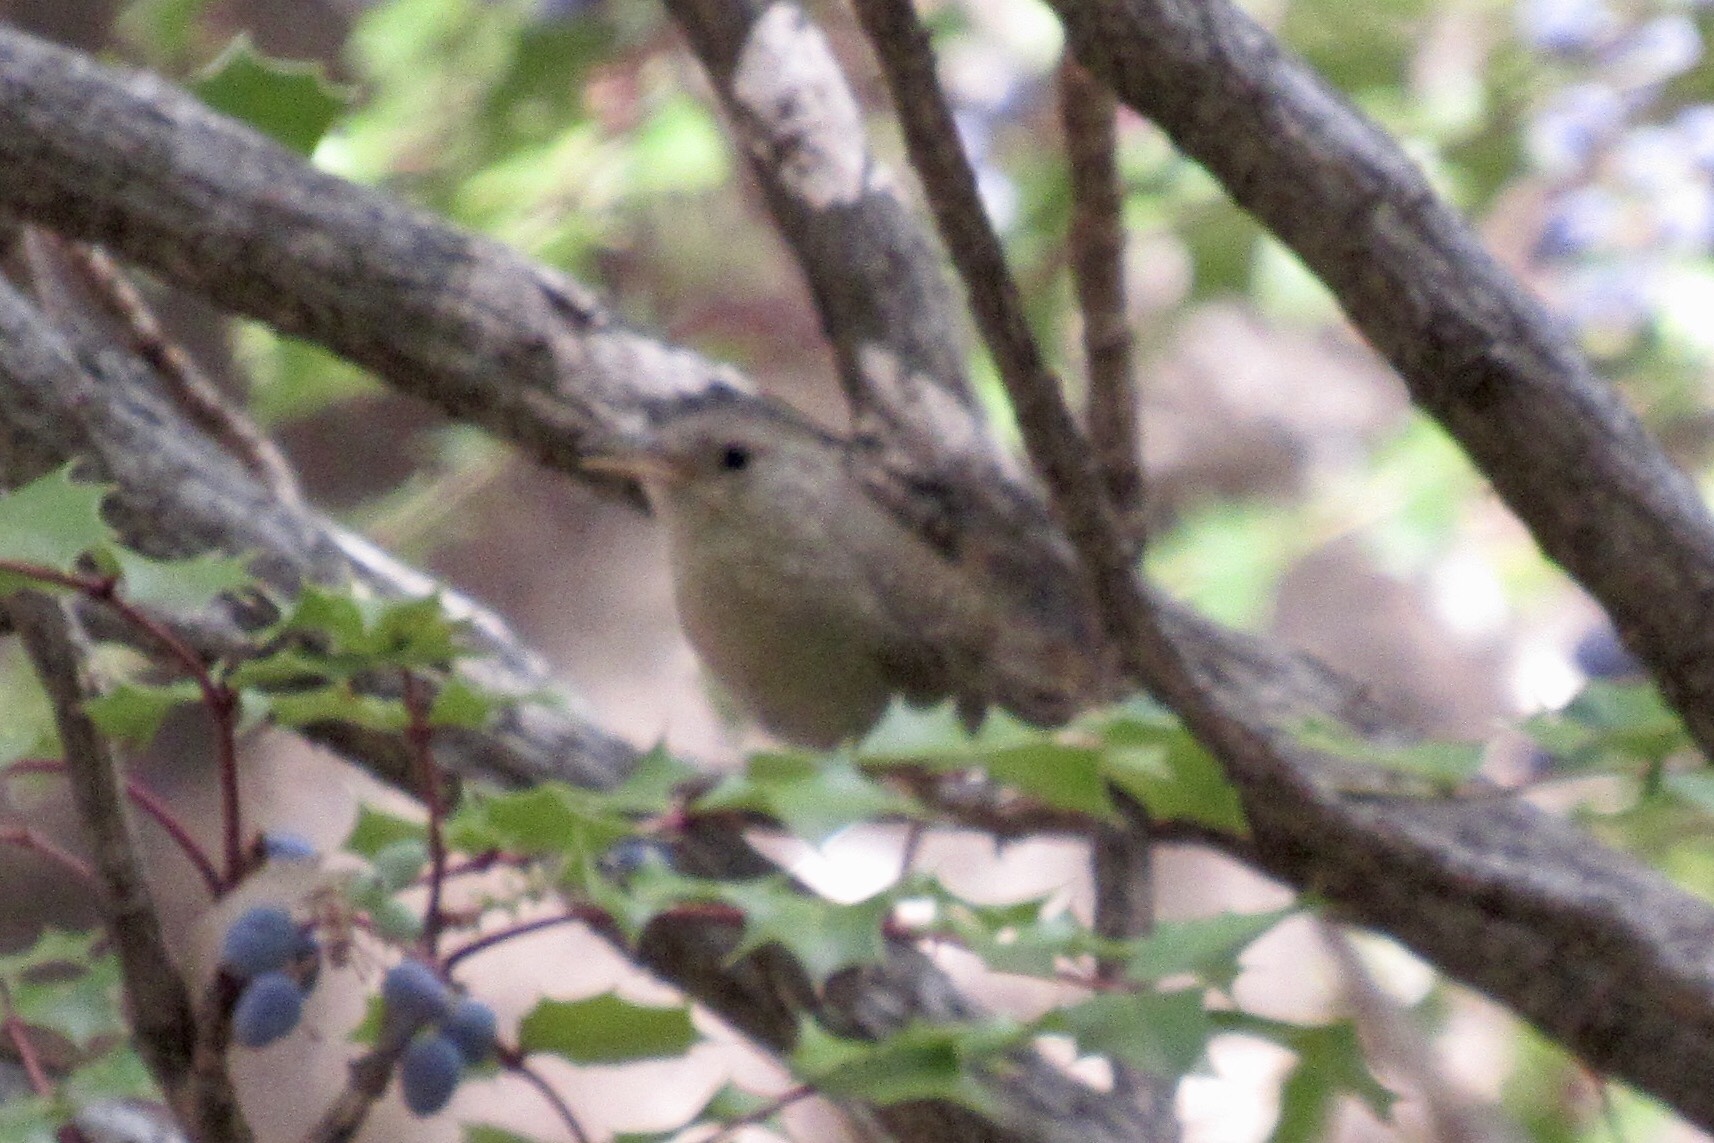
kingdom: Animalia
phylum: Chordata
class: Aves
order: Passeriformes
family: Troglodytidae
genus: Troglodytes
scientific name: Troglodytes aedon
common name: House wren
